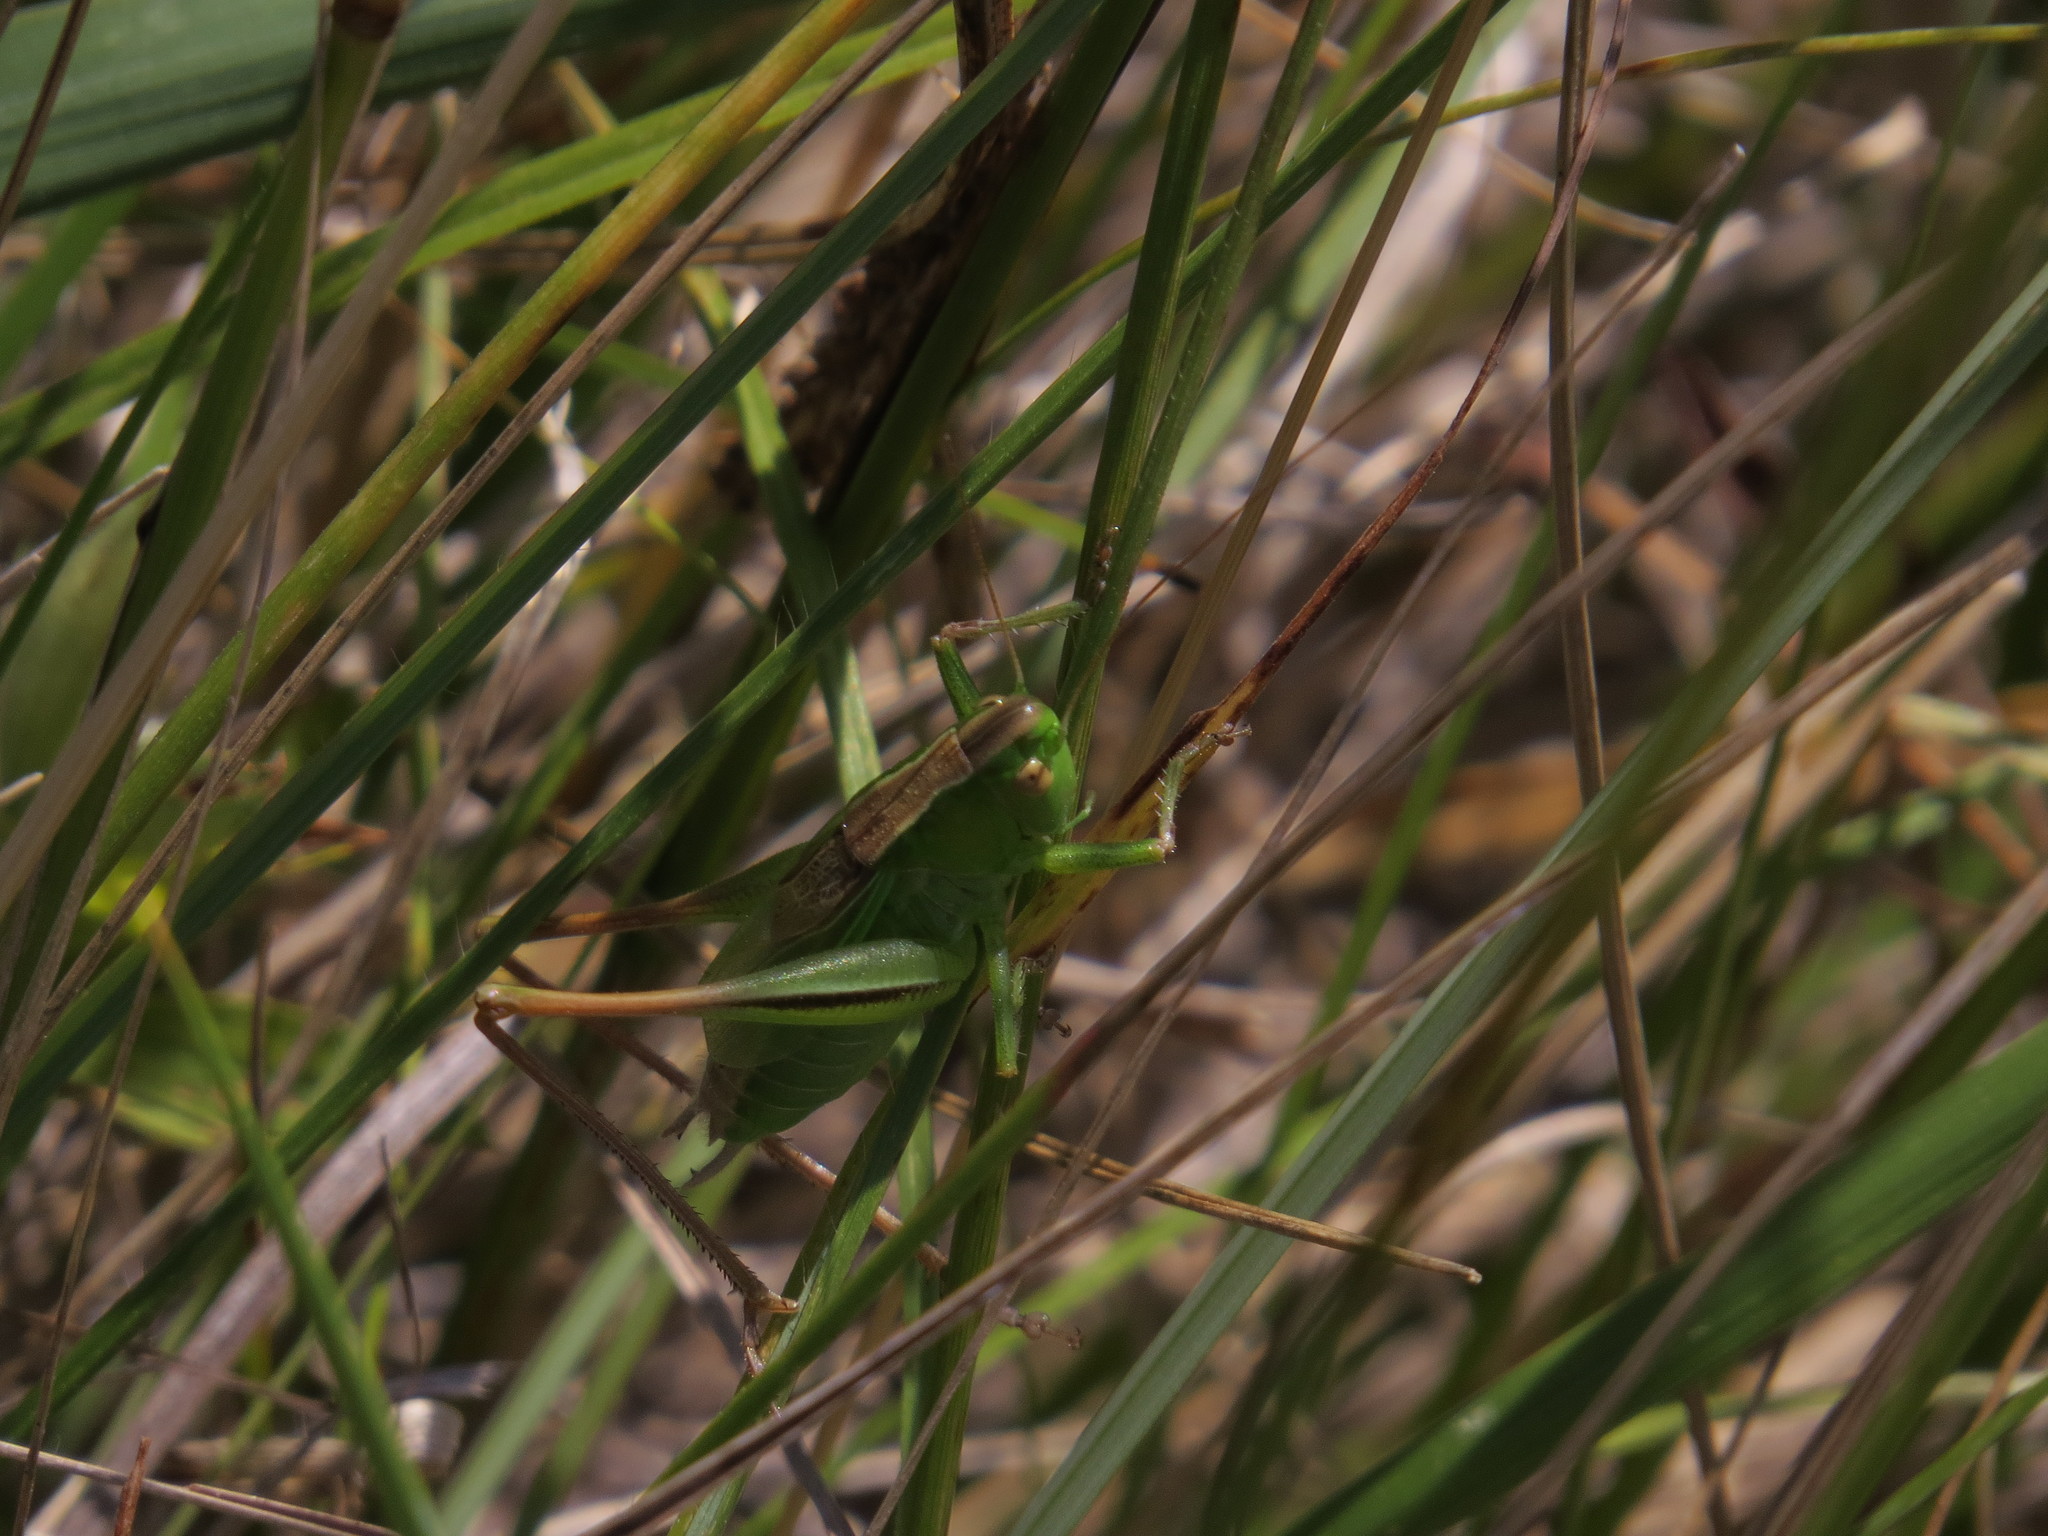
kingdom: Animalia
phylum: Arthropoda
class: Insecta
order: Orthoptera
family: Tettigoniidae
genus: Bicolorana
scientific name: Bicolorana bicolor
